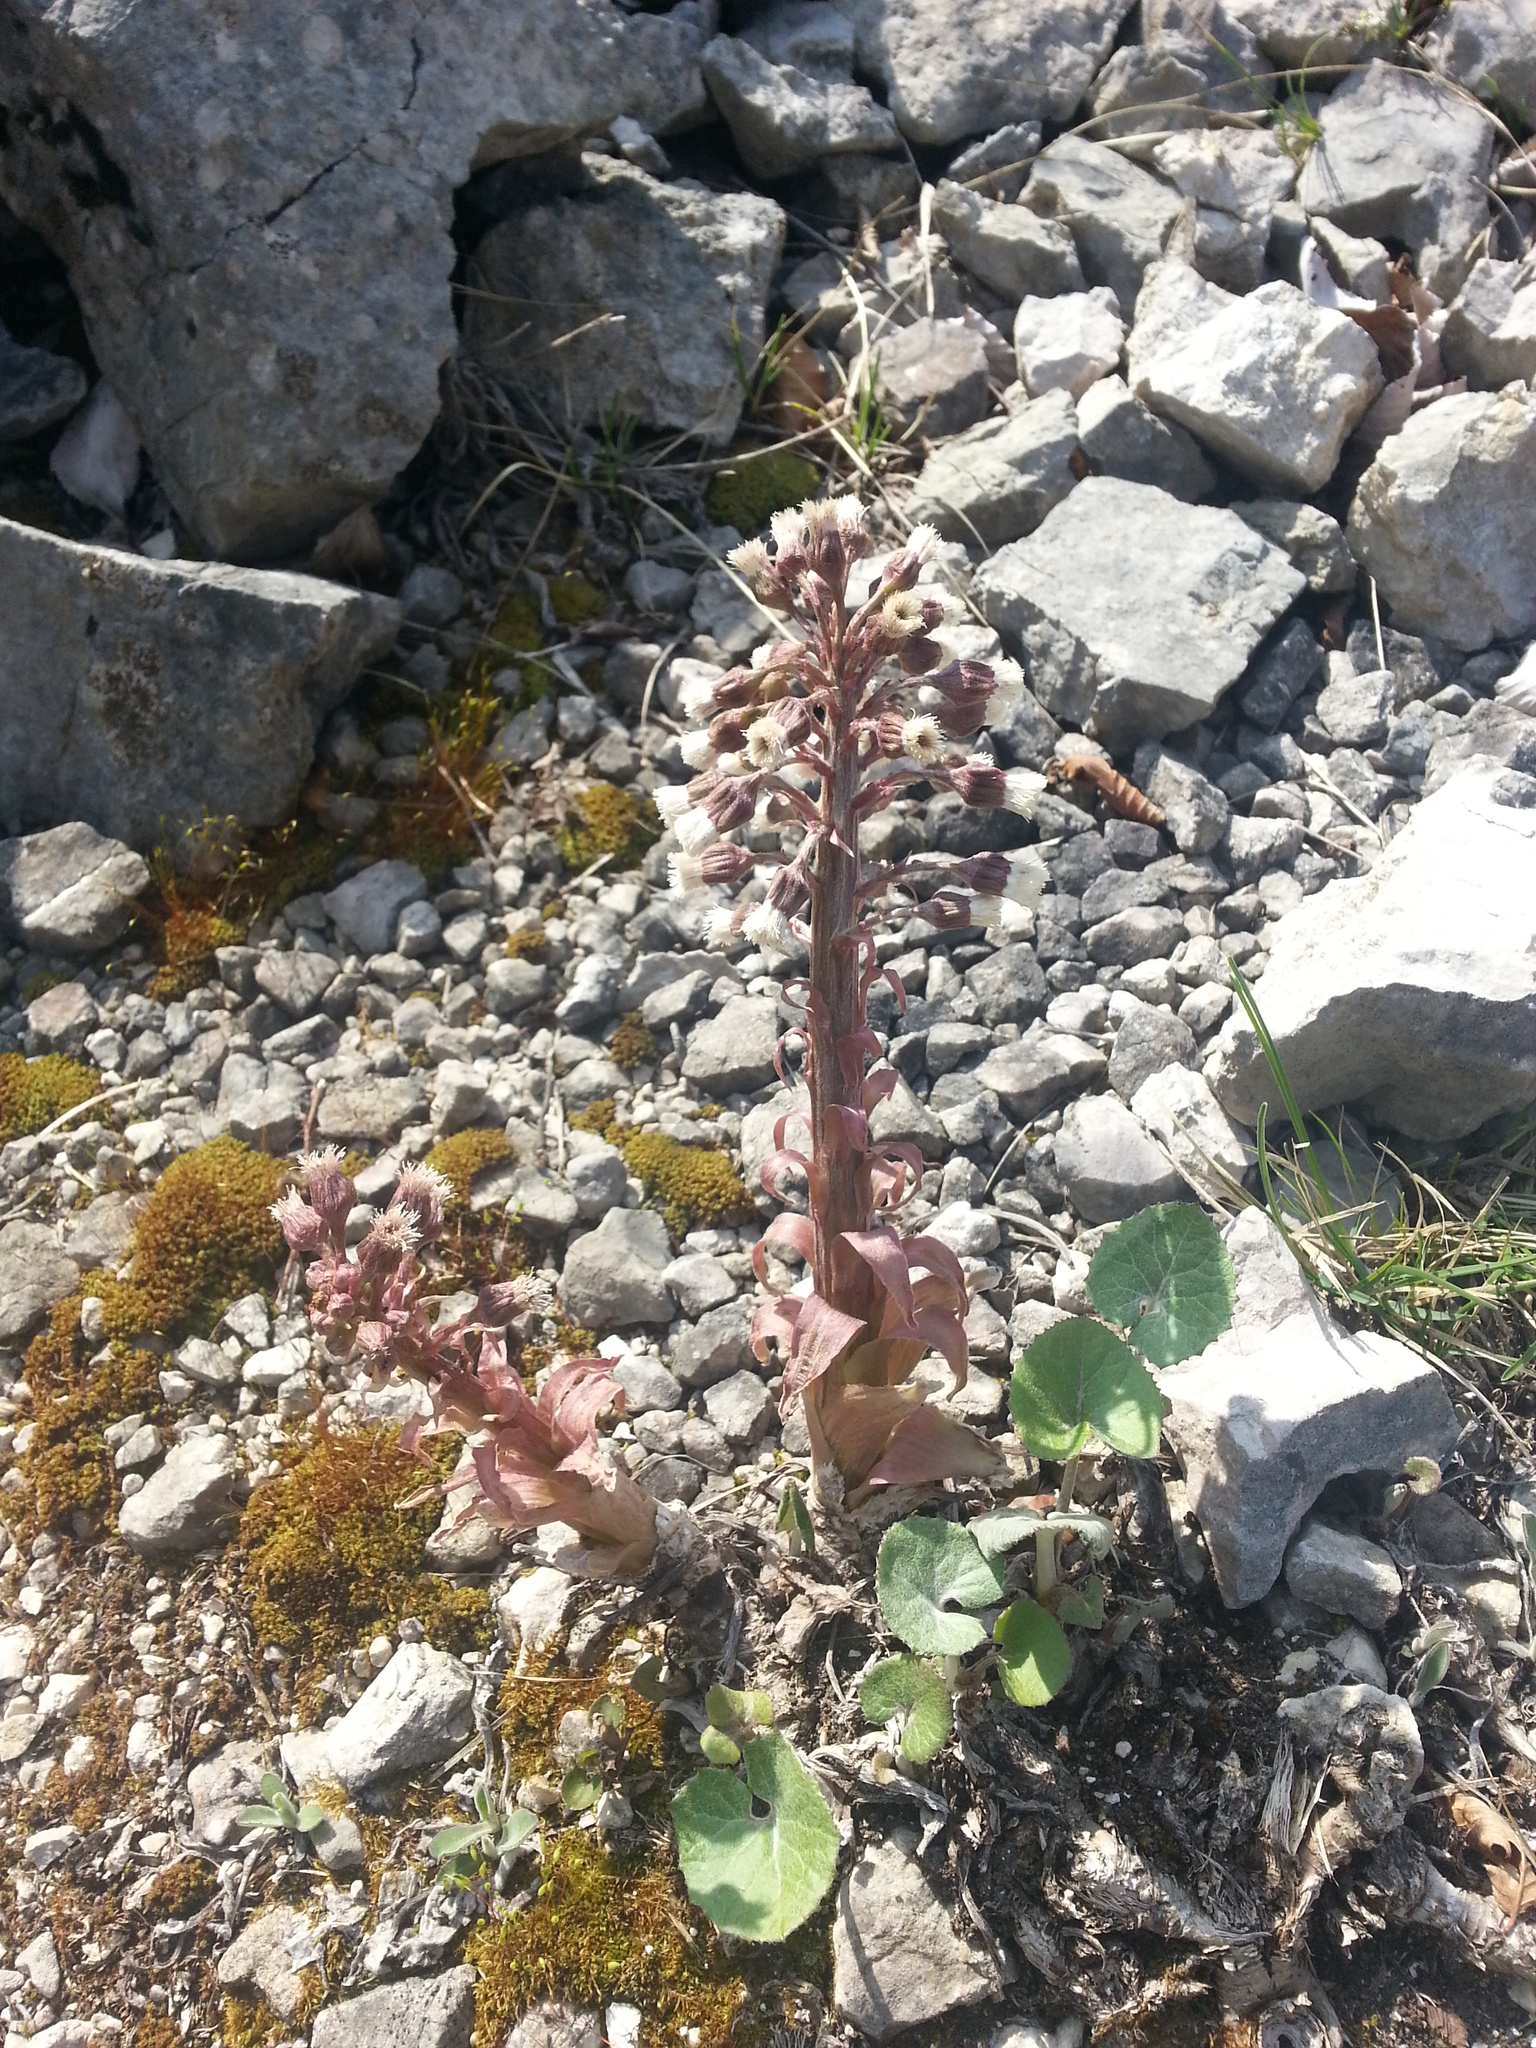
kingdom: Plantae
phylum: Tracheophyta
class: Magnoliopsida
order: Asterales
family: Asteraceae
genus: Petasites
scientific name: Petasites paradoxus
